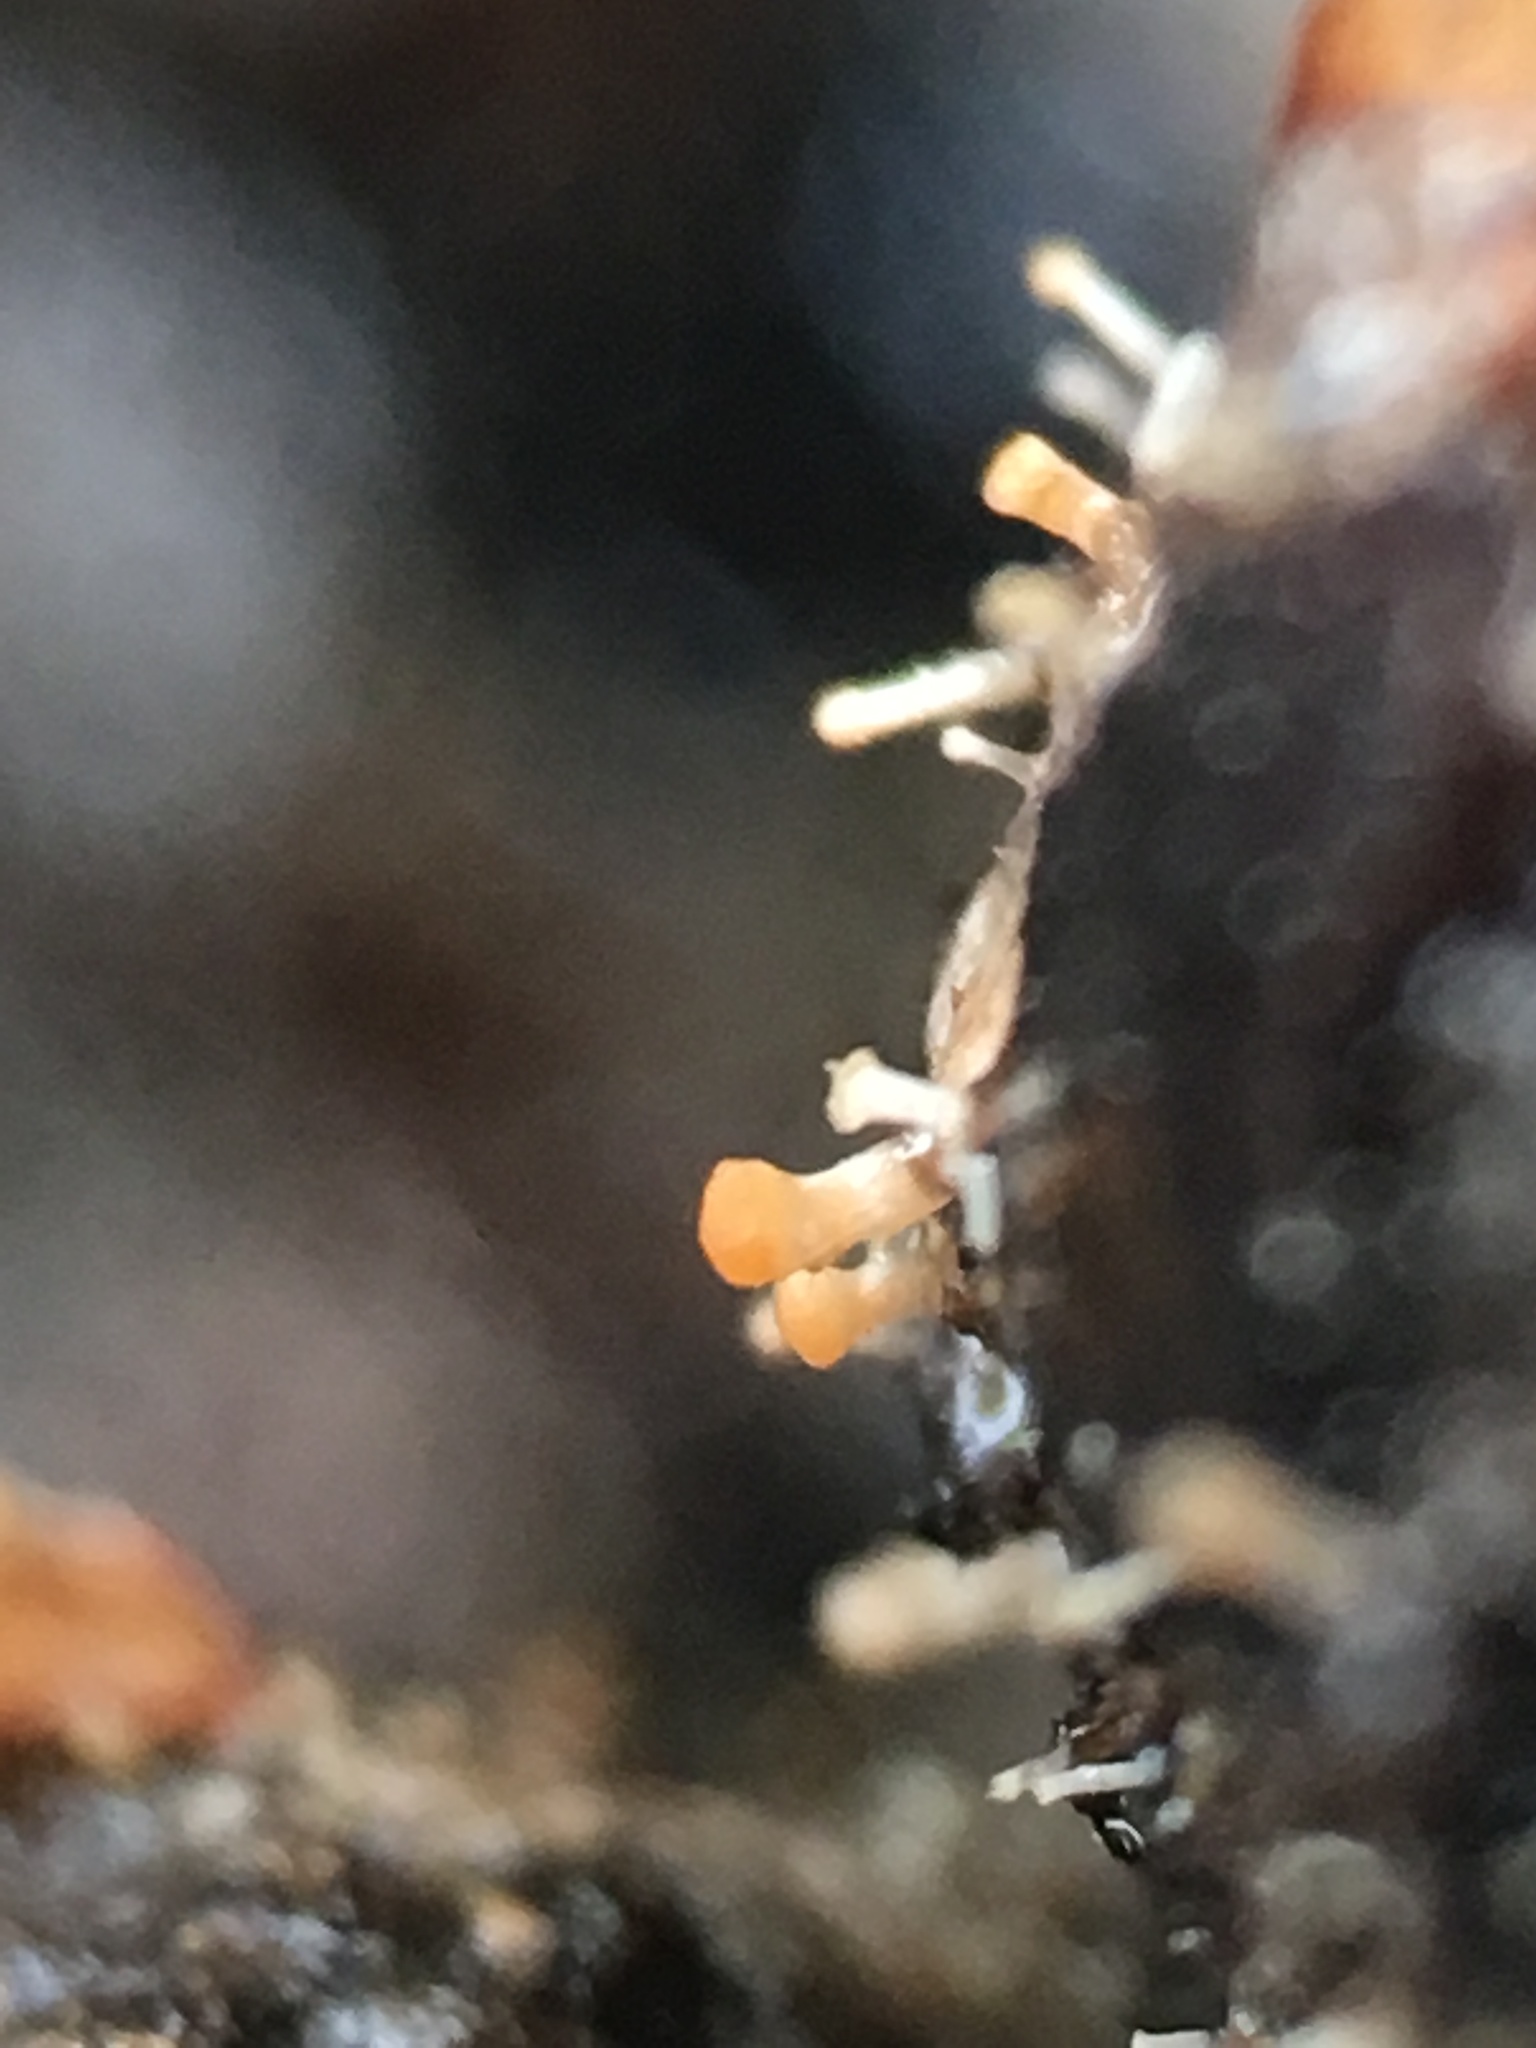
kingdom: Fungi
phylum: Ascomycota
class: Sordariomycetes
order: Hypocreales
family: Myrotheciomycetaceae
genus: Emericellopsis
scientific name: Emericellopsis
